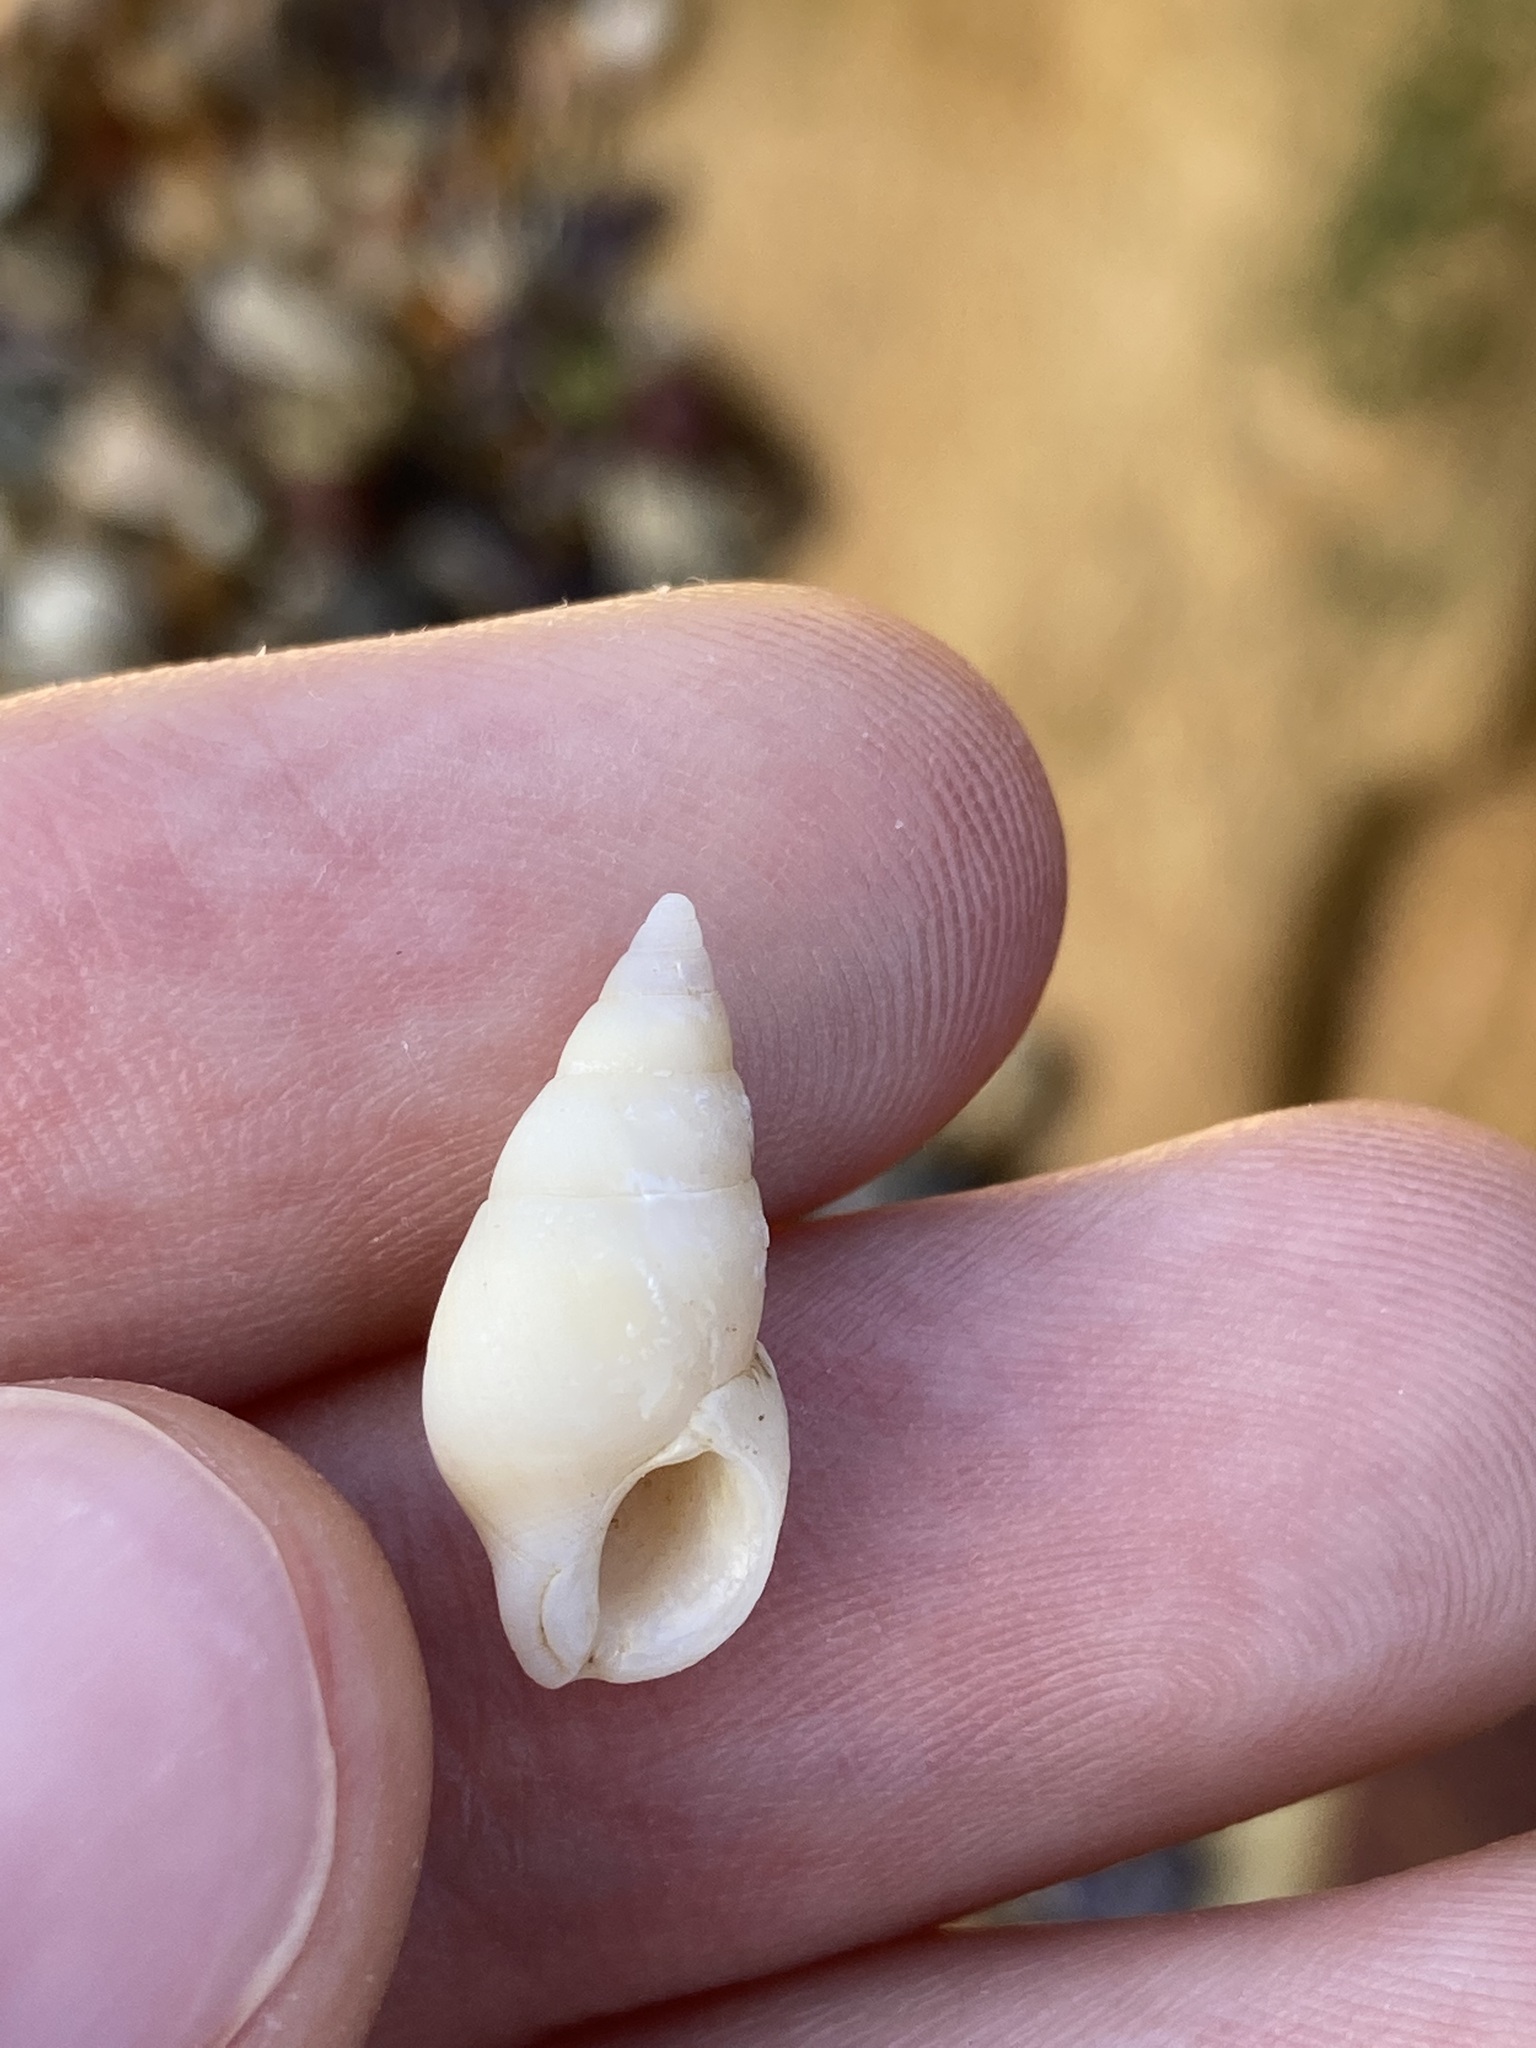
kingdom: Animalia
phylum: Mollusca
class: Gastropoda
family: Planaxidae
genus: Hinea
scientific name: Hinea brasiliana
